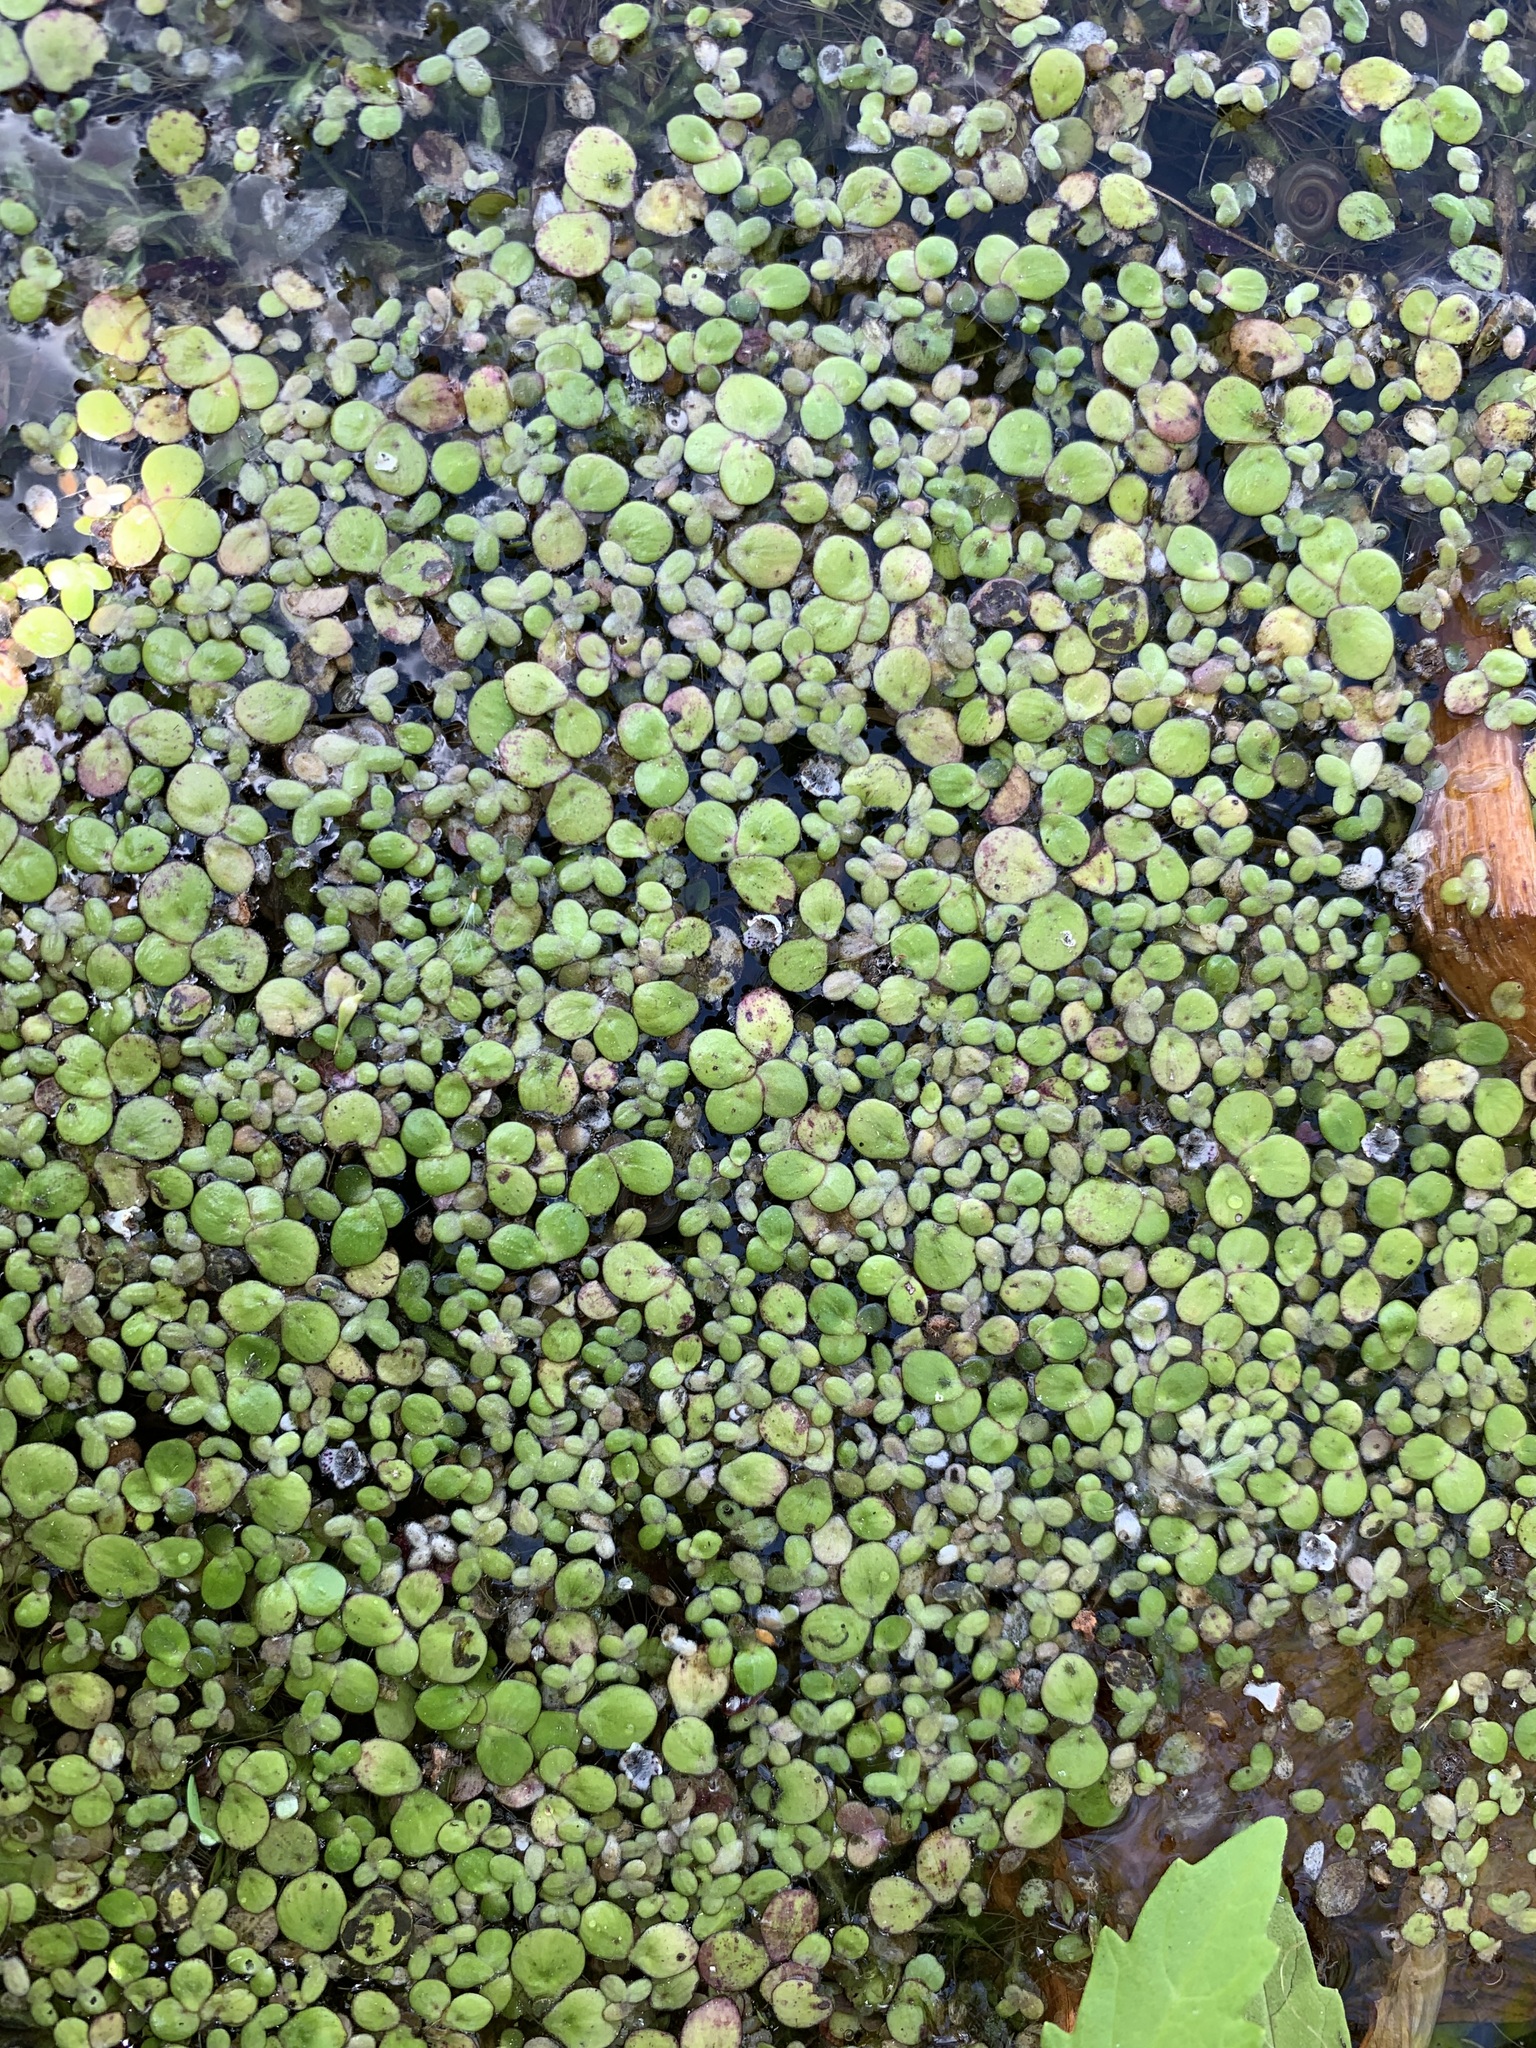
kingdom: Plantae
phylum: Tracheophyta
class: Liliopsida
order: Alismatales
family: Araceae
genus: Spirodela
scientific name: Spirodela polyrhiza
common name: Great duckweed
